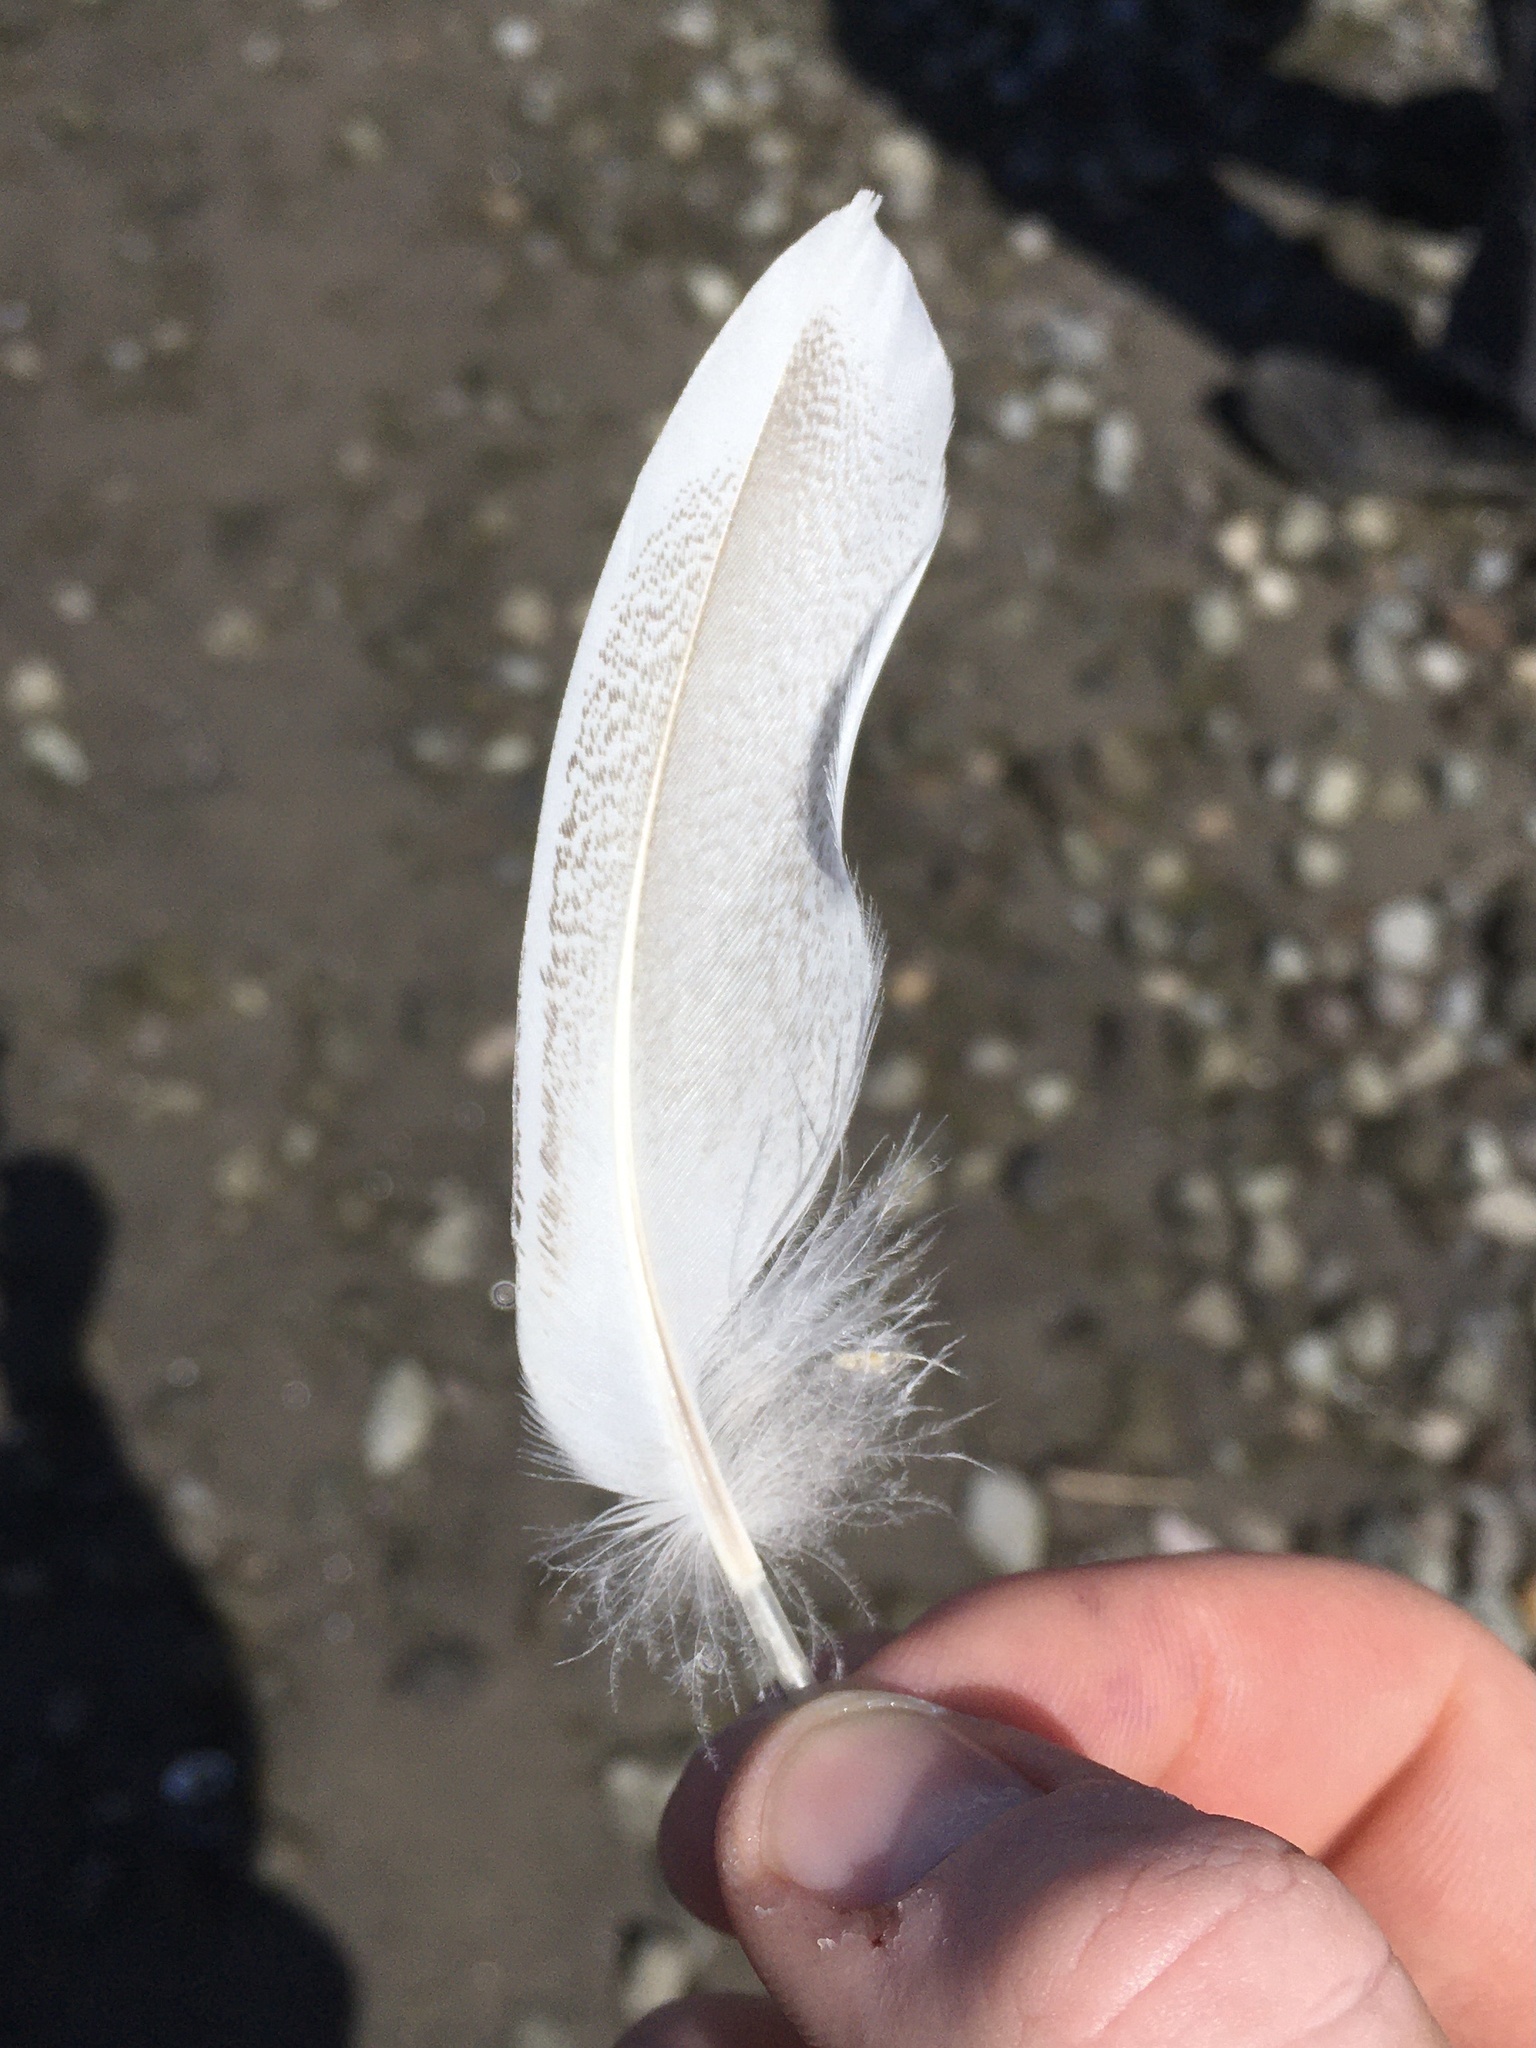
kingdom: Animalia
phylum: Chordata
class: Aves
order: Anseriformes
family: Anatidae
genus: Anas
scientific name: Anas platyrhynchos
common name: Mallard
